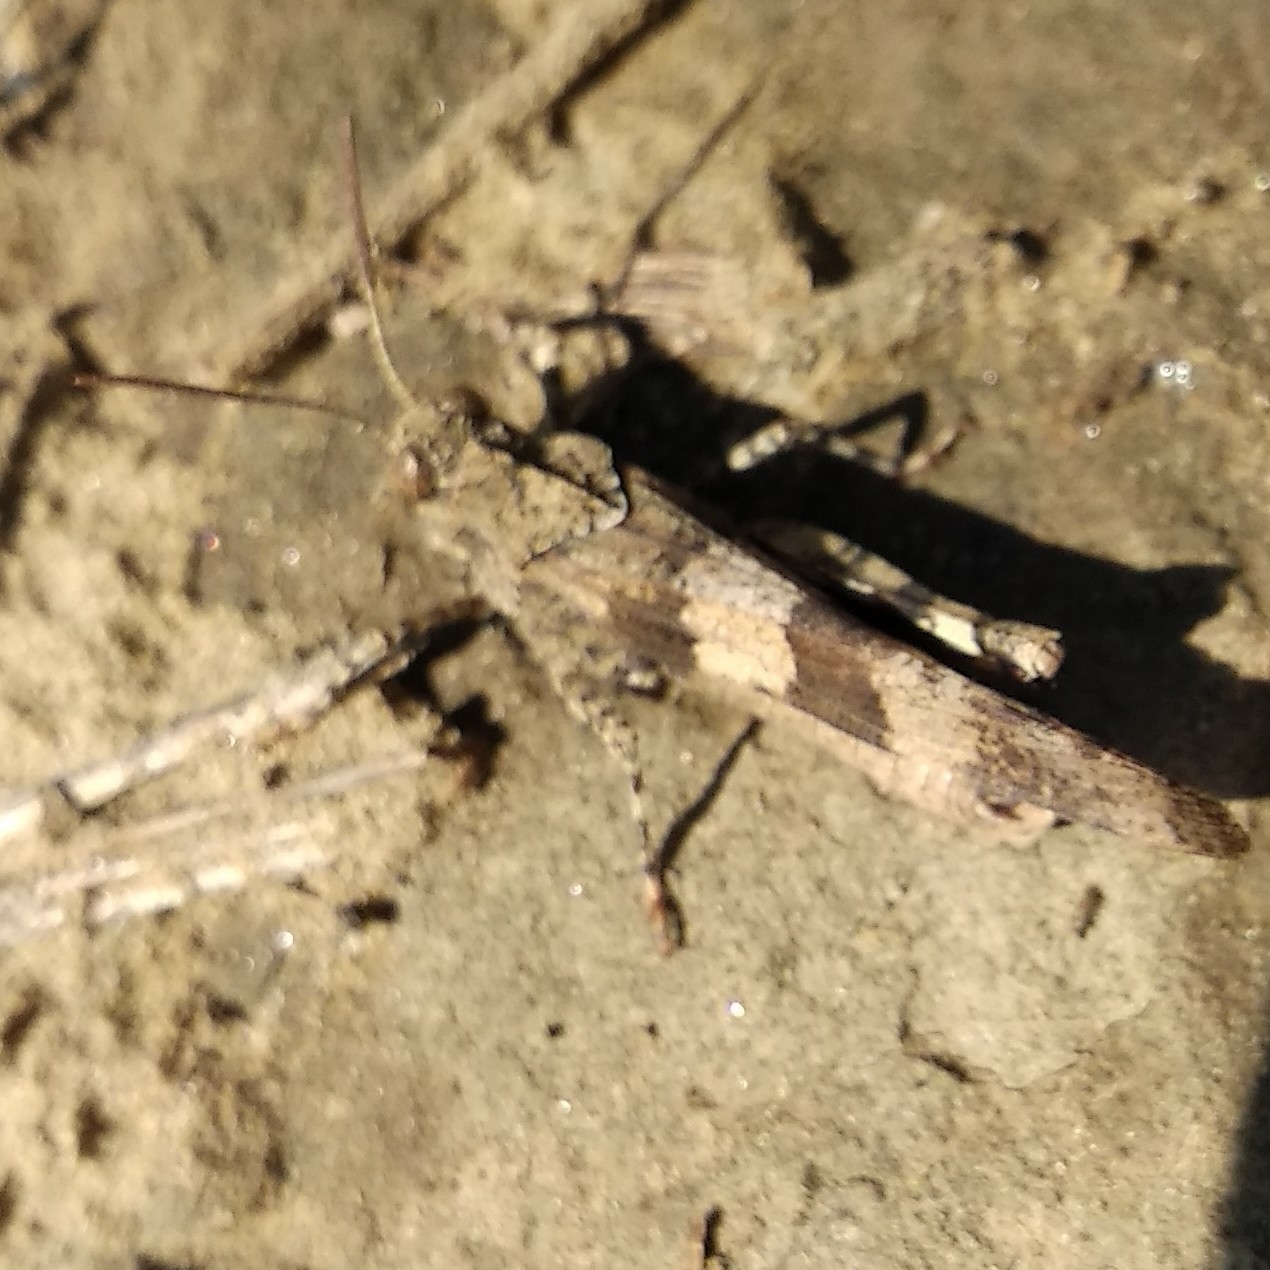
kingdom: Animalia
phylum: Arthropoda
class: Insecta
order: Orthoptera
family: Acrididae
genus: Oedipoda
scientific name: Oedipoda caerulescens
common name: Blue-winged grasshopper
